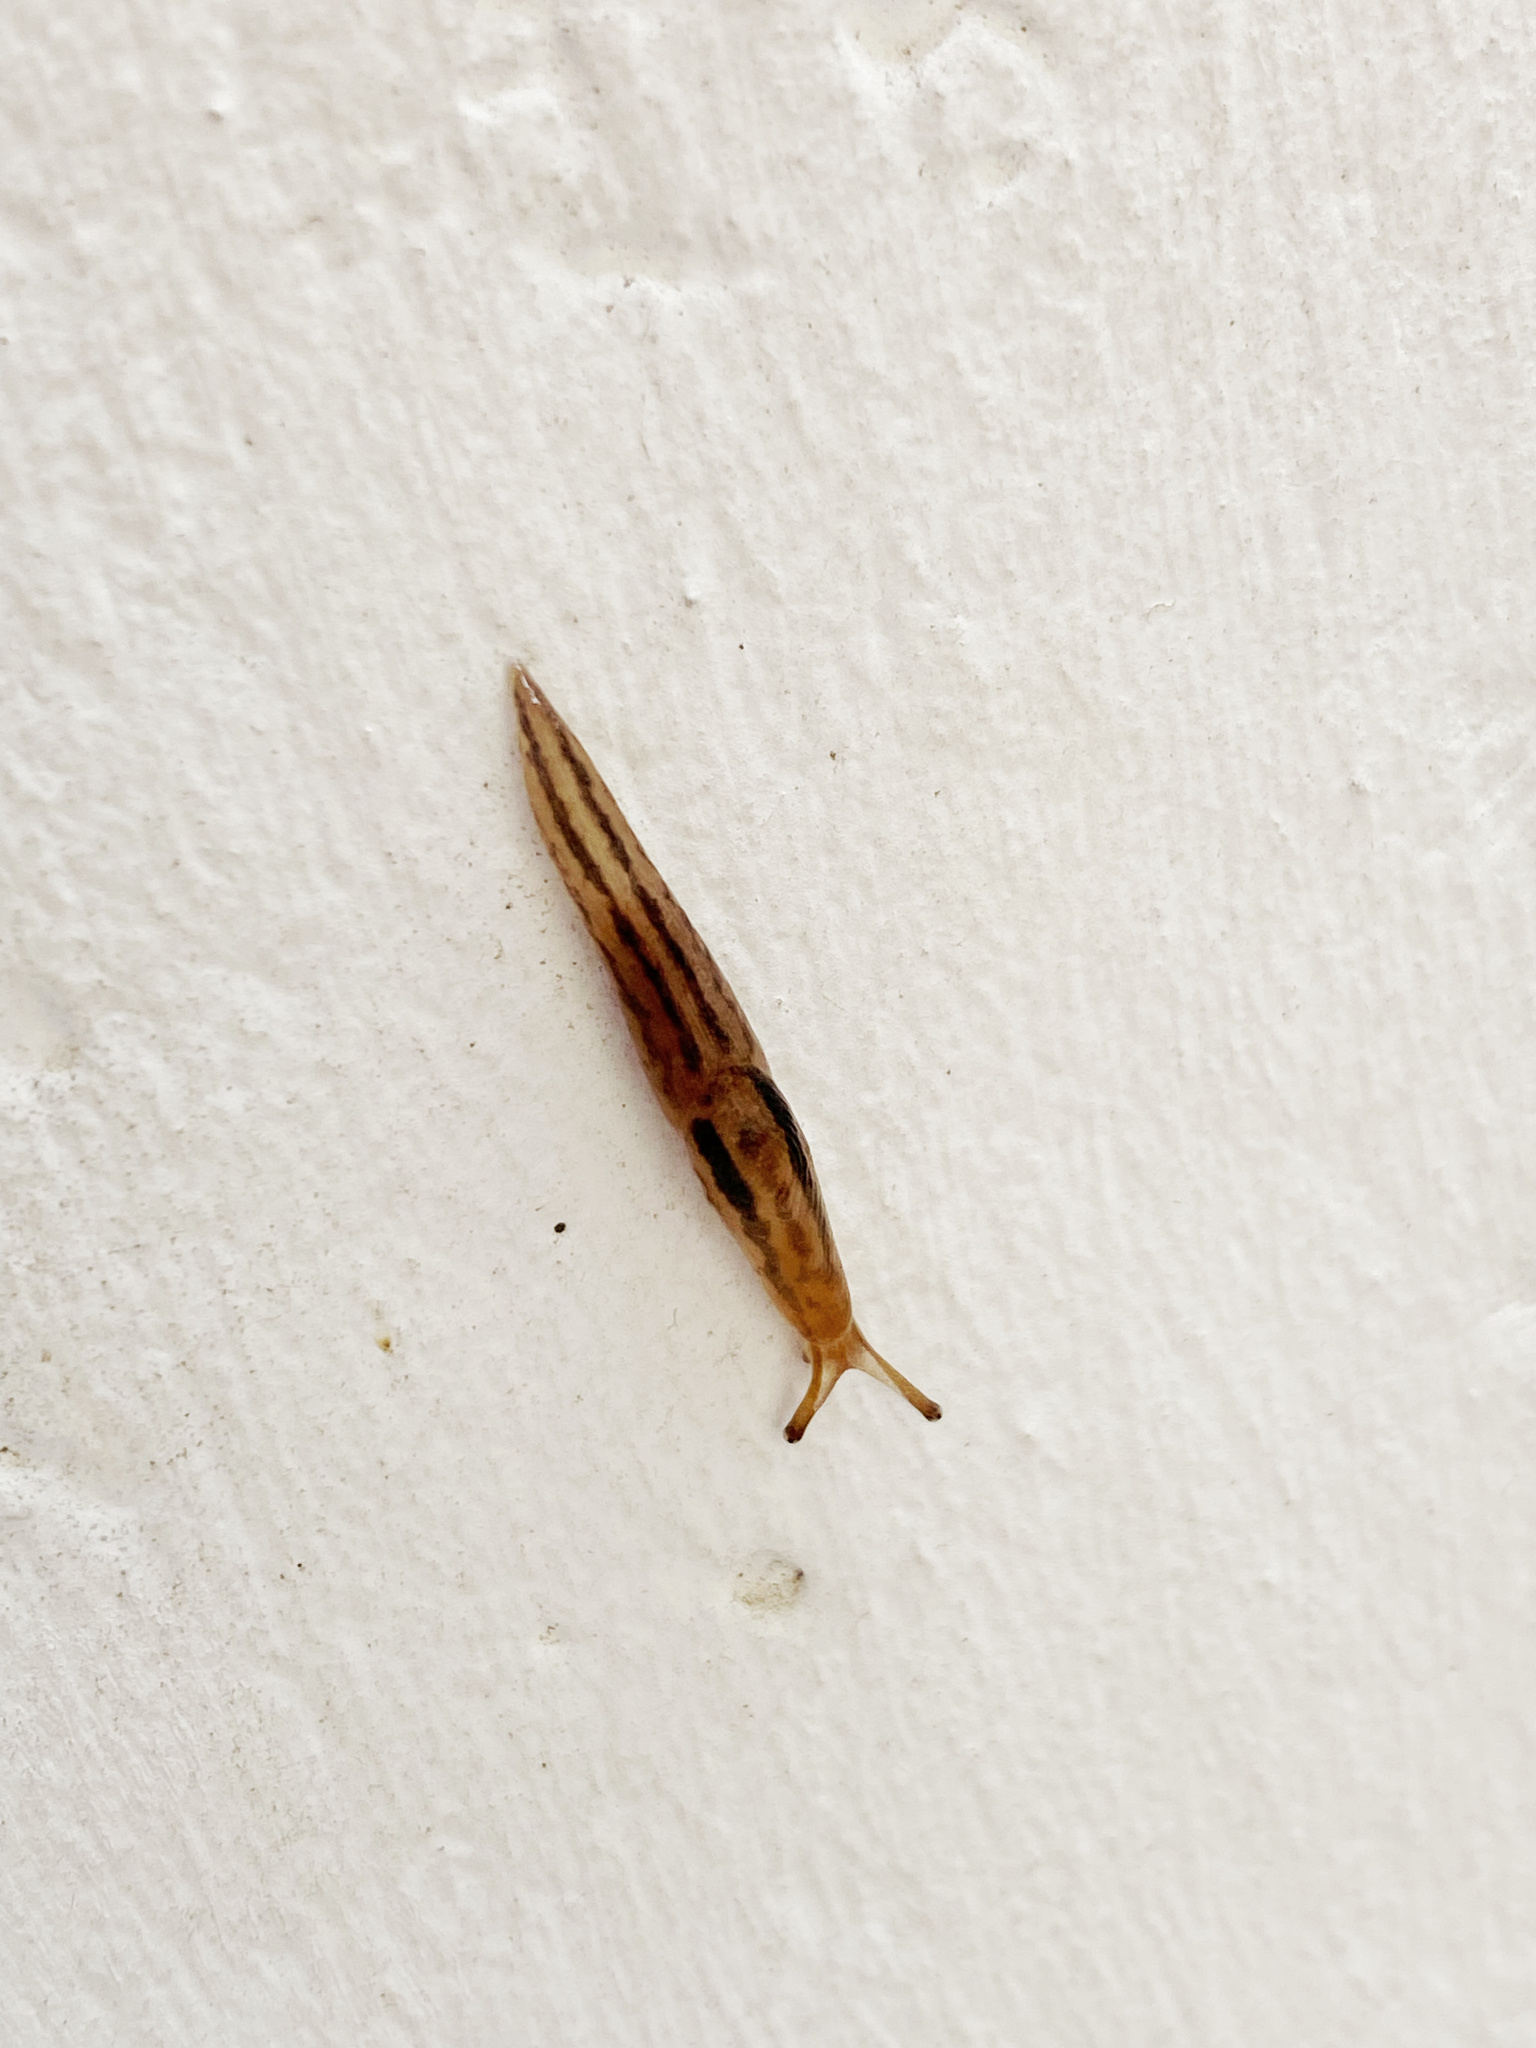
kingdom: Animalia
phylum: Mollusca
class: Gastropoda
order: Stylommatophora
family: Limacidae
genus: Ambigolimax
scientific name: Ambigolimax
